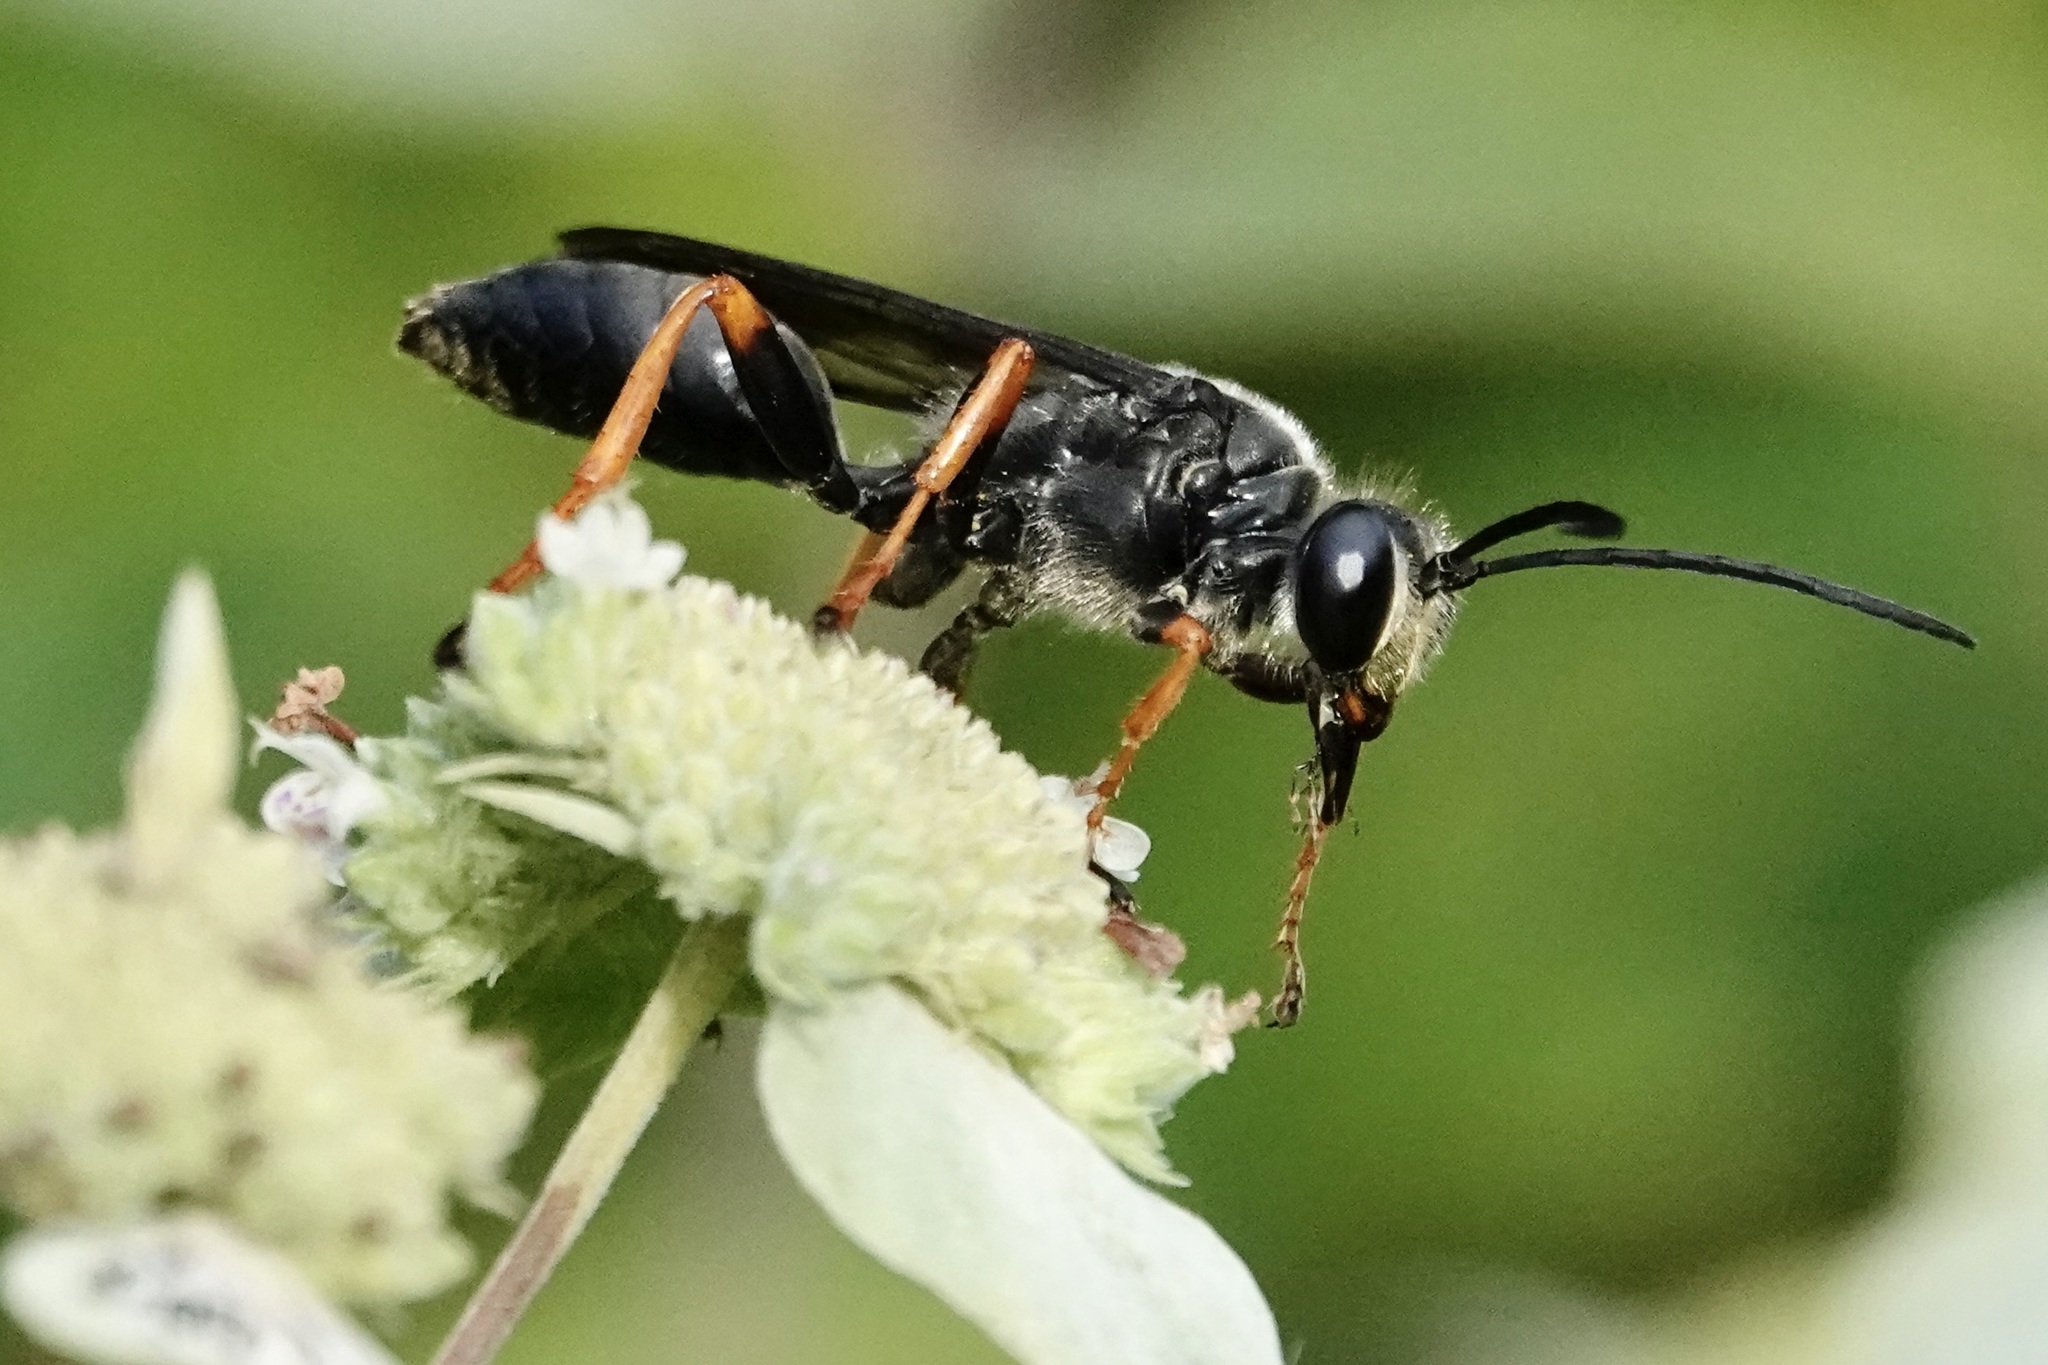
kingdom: Animalia
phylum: Arthropoda
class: Insecta
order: Hymenoptera
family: Sphecidae
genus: Sphex
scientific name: Sphex nudus
